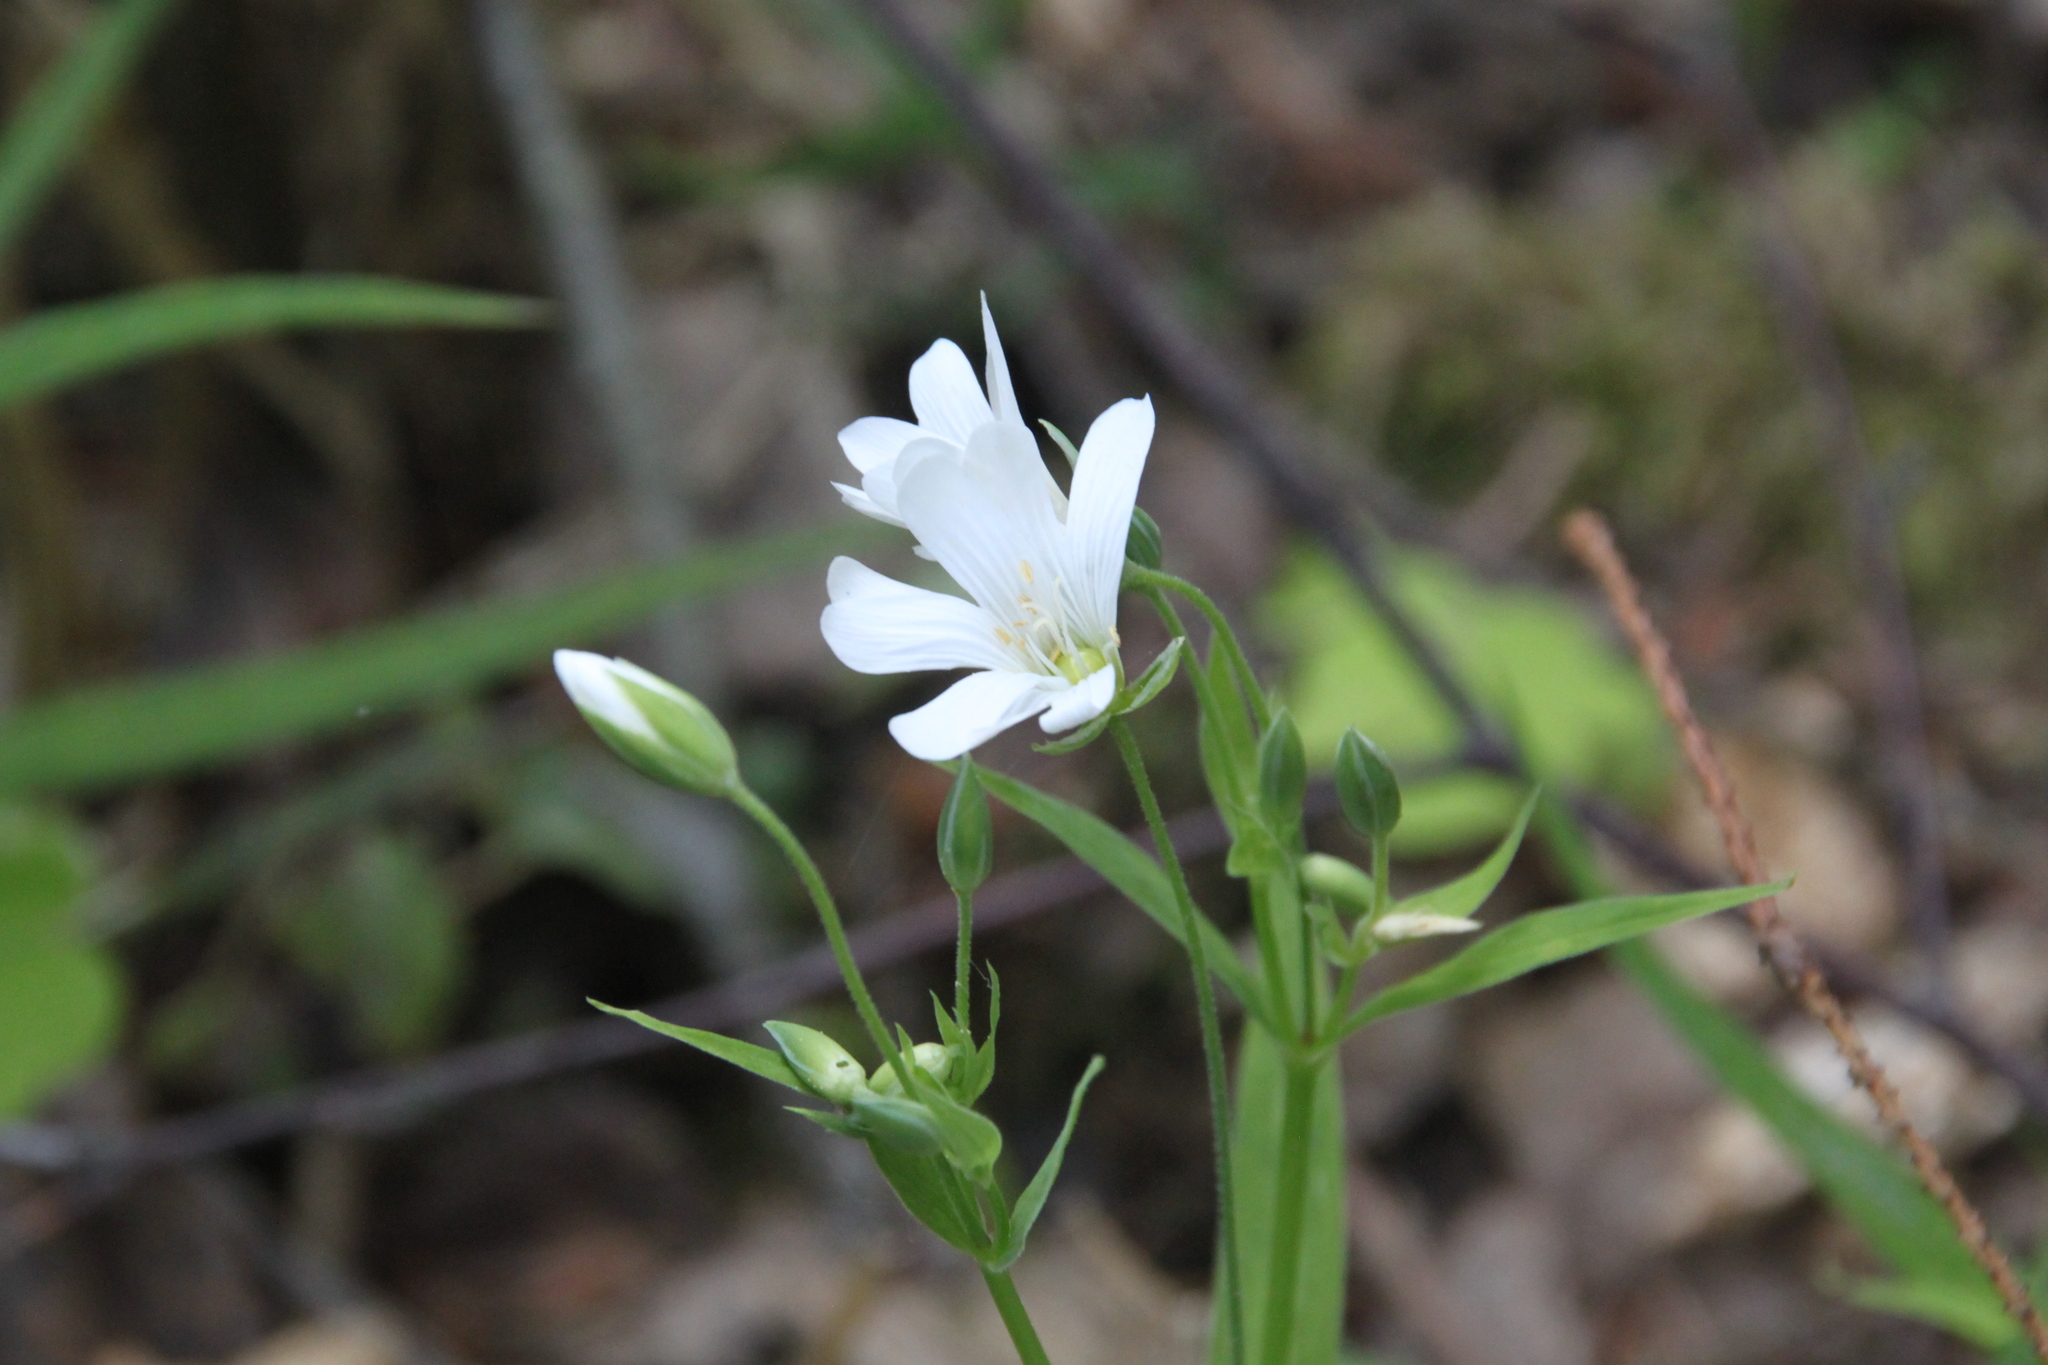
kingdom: Plantae
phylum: Tracheophyta
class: Magnoliopsida
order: Caryophyllales
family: Caryophyllaceae
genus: Rabelera
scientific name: Rabelera holostea
